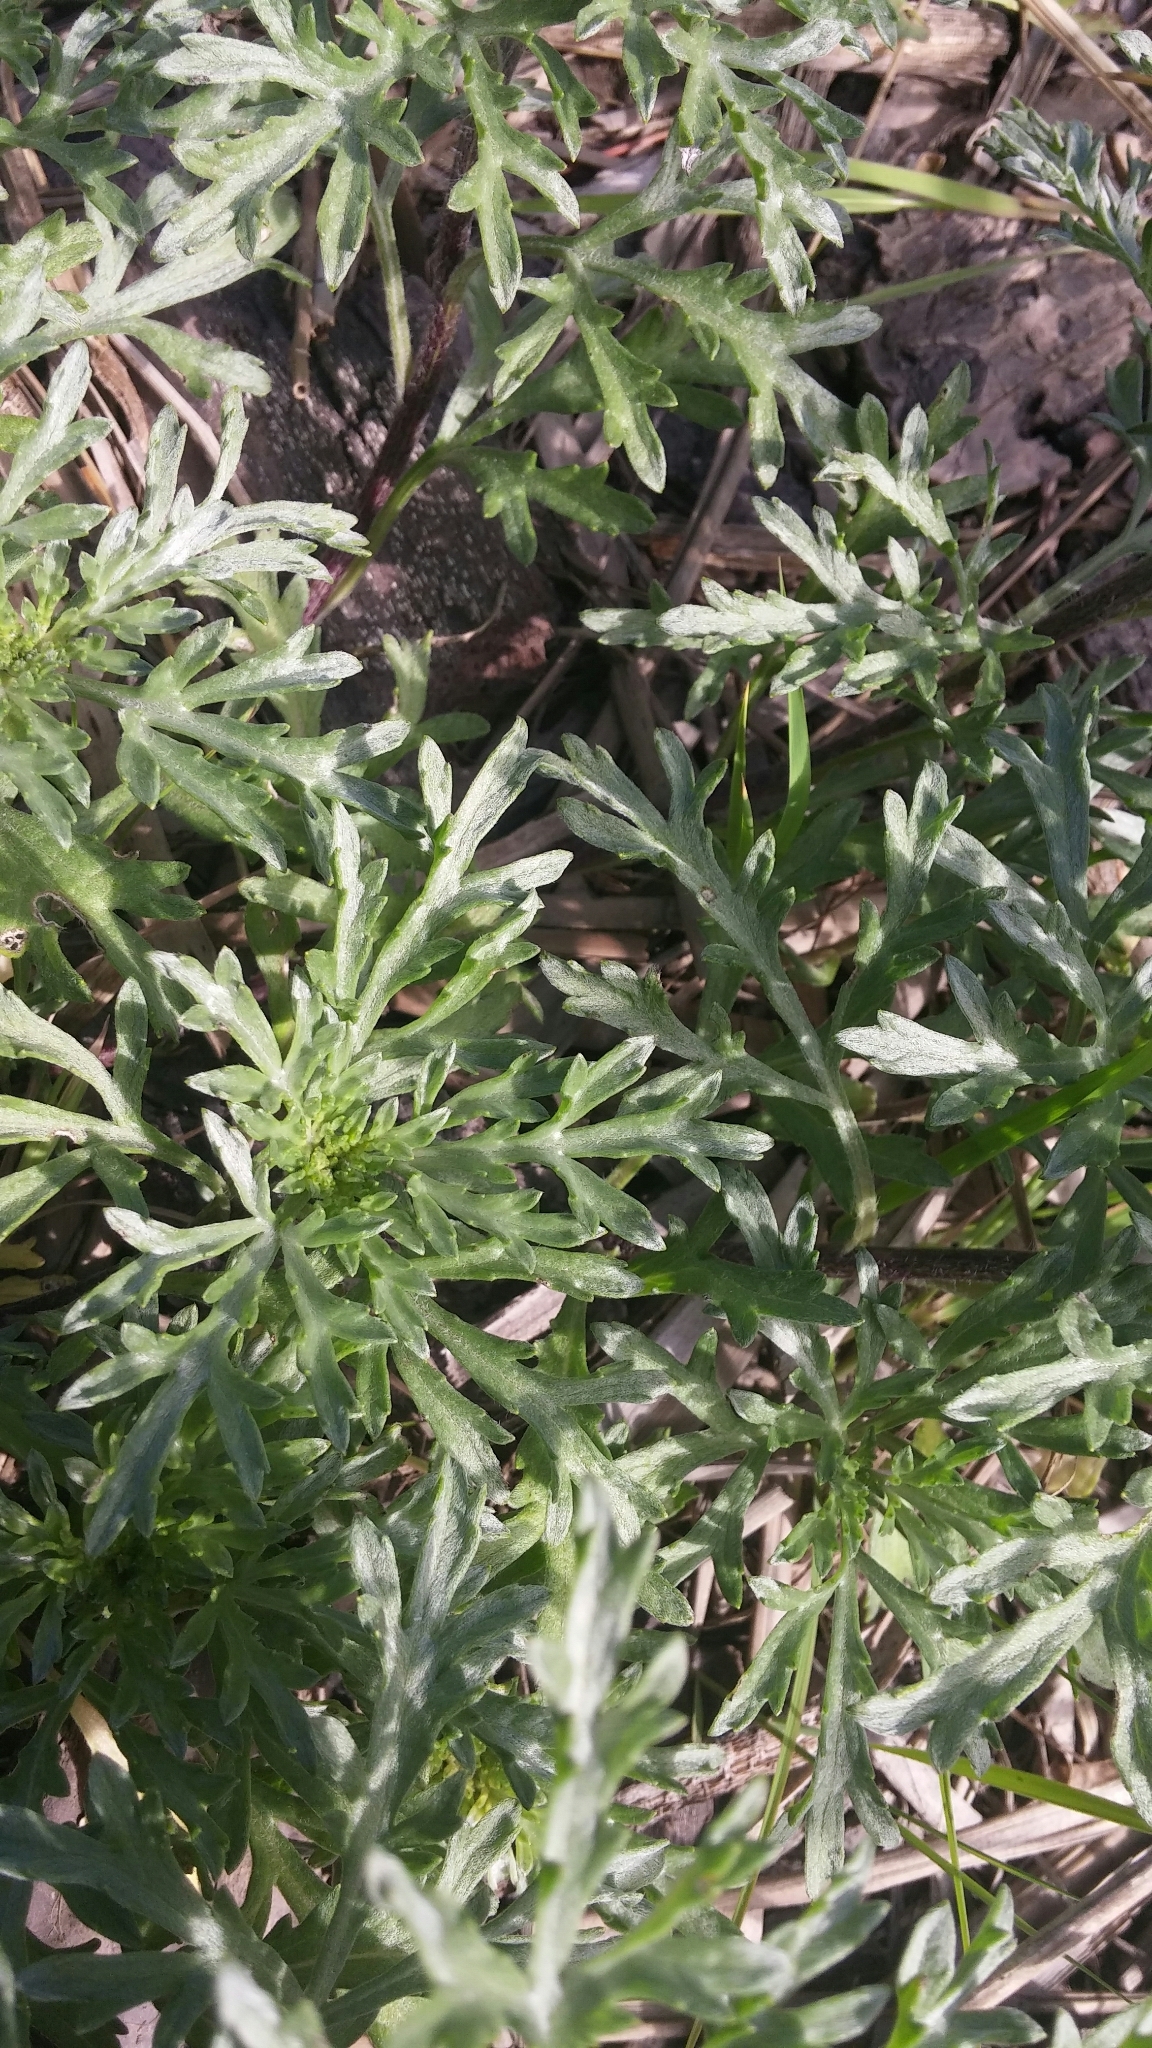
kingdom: Plantae
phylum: Tracheophyta
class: Magnoliopsida
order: Asterales
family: Asteraceae
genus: Ambrosia
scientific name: Ambrosia chamissonis
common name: Beachbur
